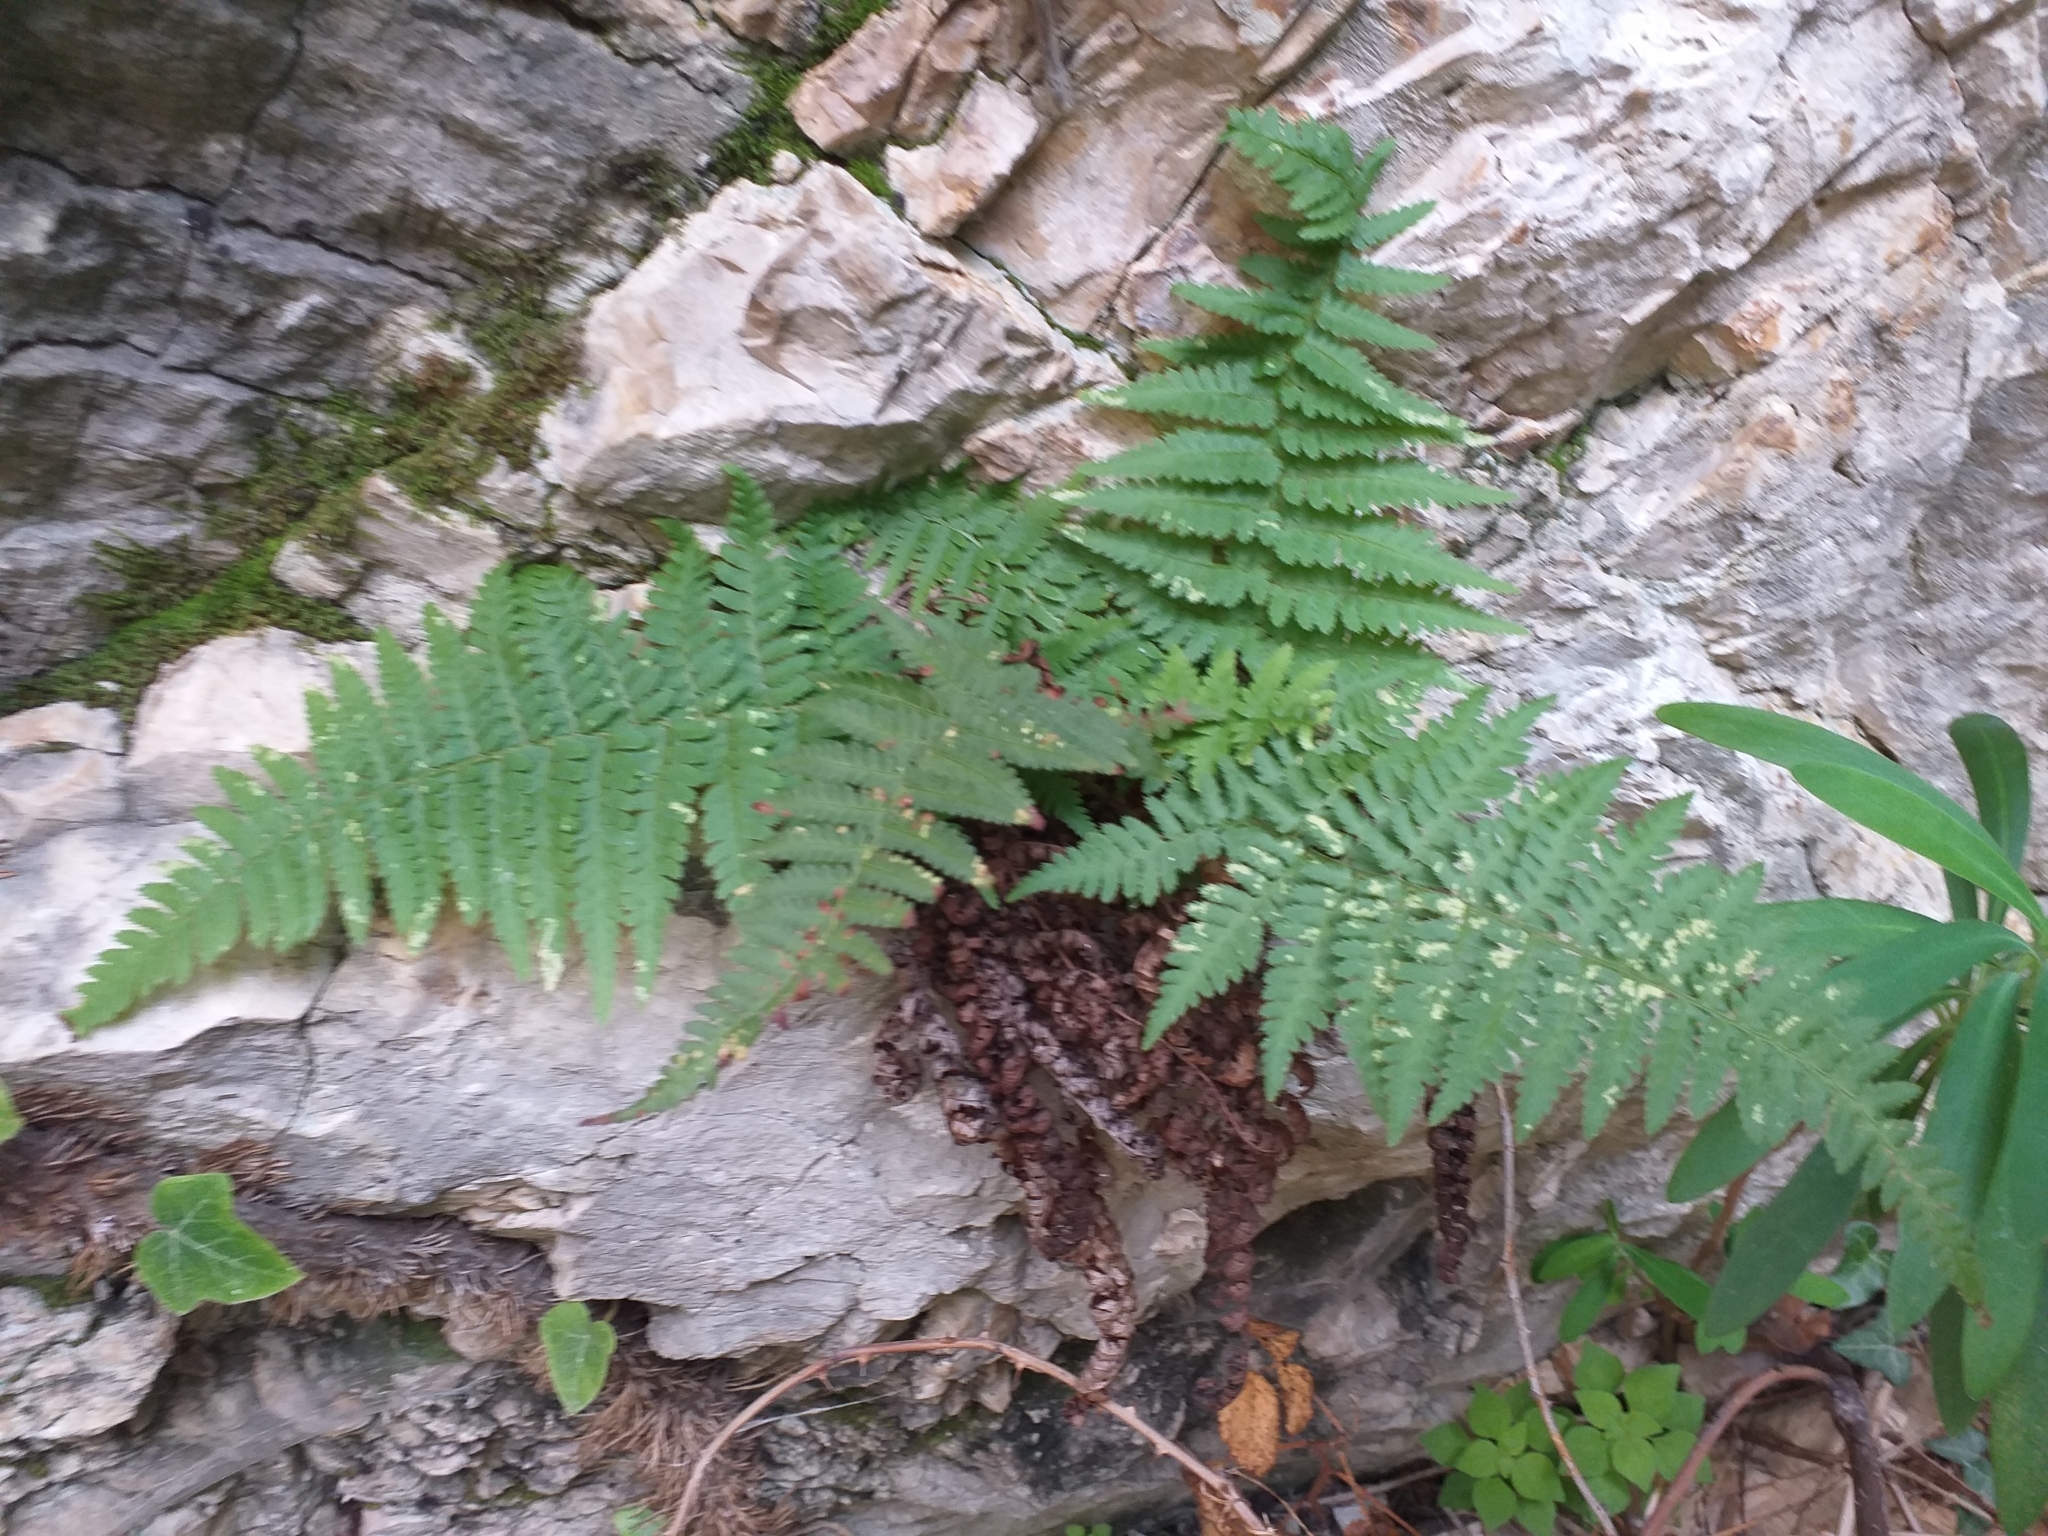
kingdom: Plantae
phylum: Tracheophyta
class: Polypodiopsida
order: Polypodiales
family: Dryopteridaceae
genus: Dryopteris
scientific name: Dryopteris pallida
